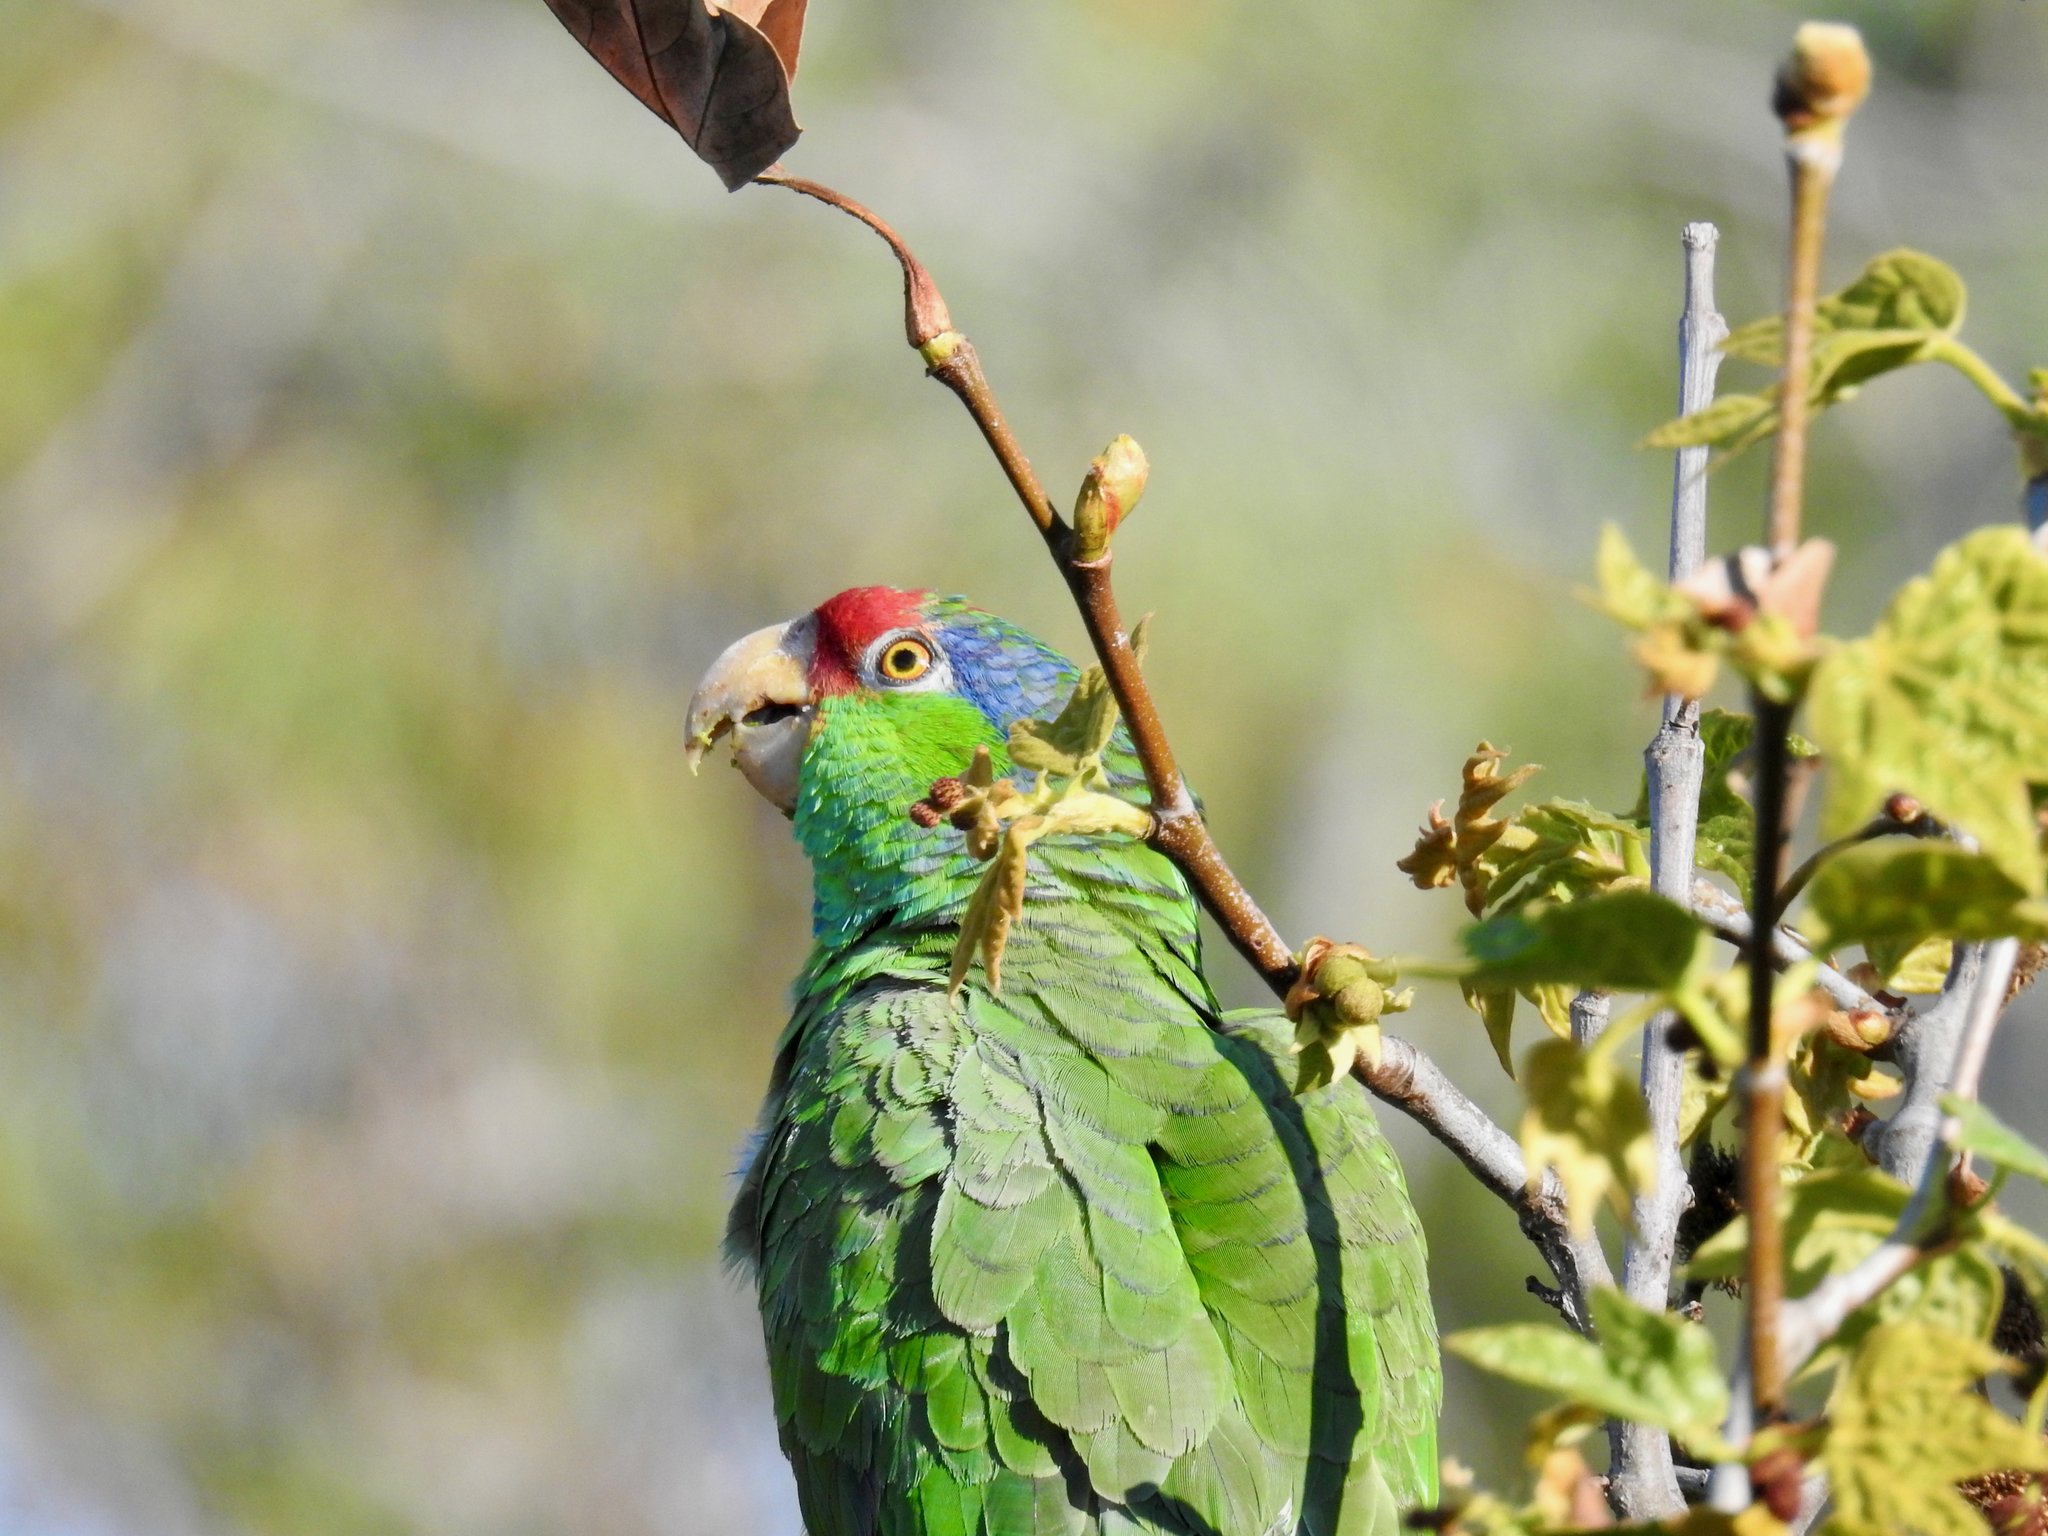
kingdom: Animalia
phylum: Chordata
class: Aves
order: Psittaciformes
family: Psittacidae
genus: Amazona
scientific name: Amazona viridigenalis
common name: Red-crowned amazon
